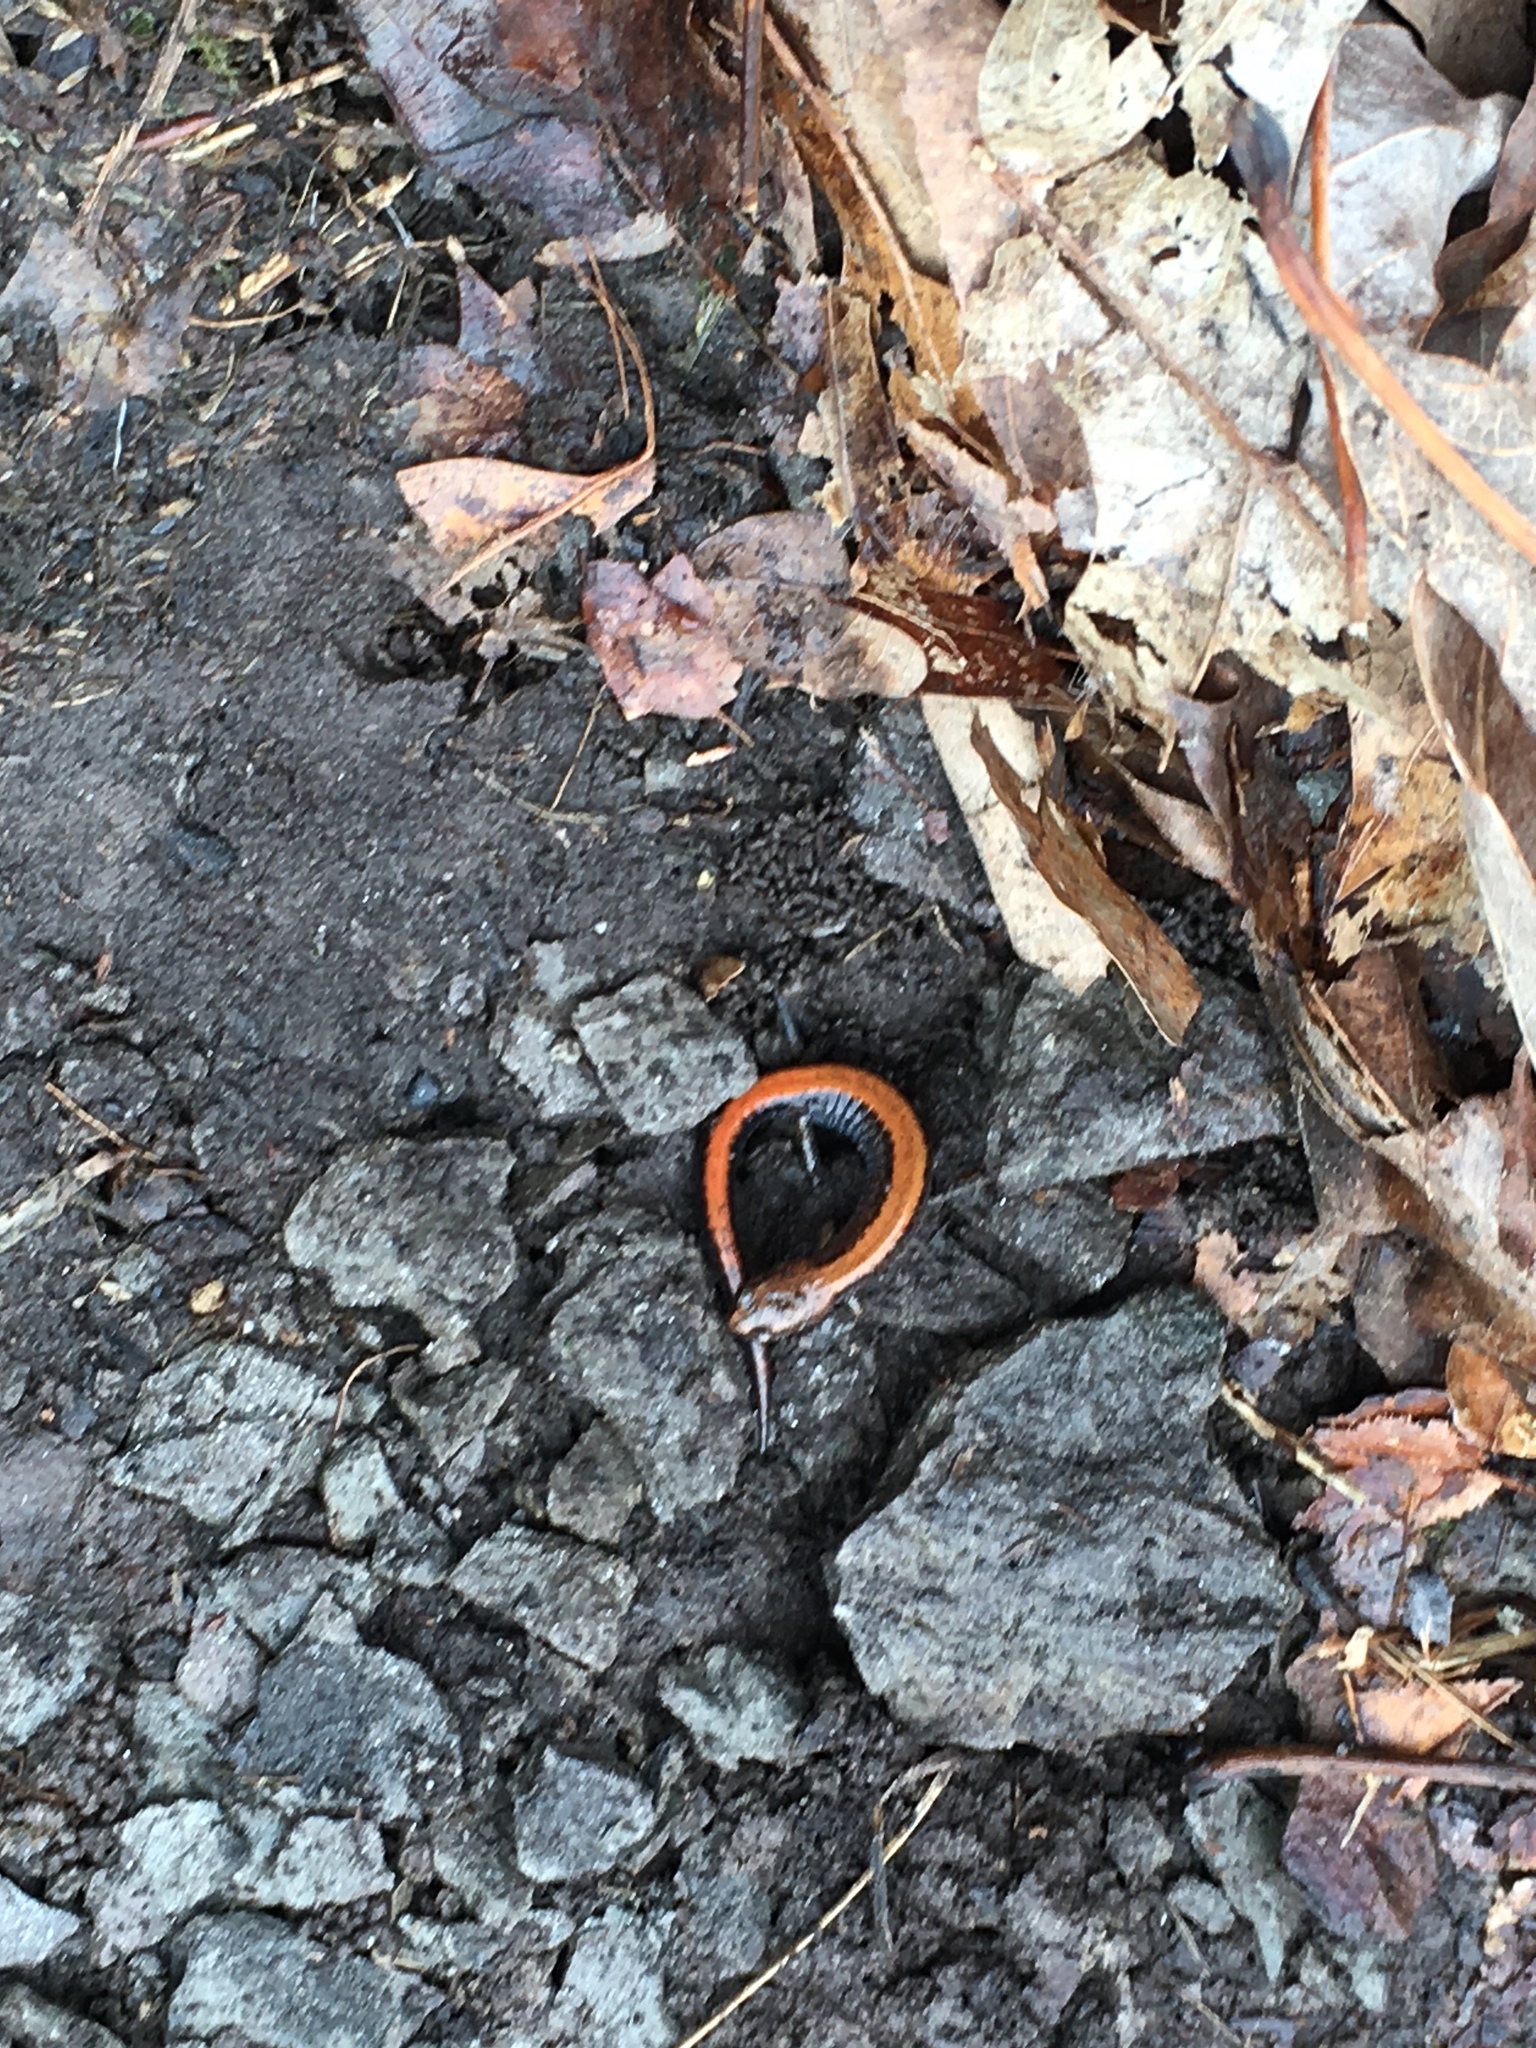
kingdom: Animalia
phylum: Chordata
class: Amphibia
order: Caudata
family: Plethodontidae
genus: Plethodon
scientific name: Plethodon cinereus
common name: Redback salamander
